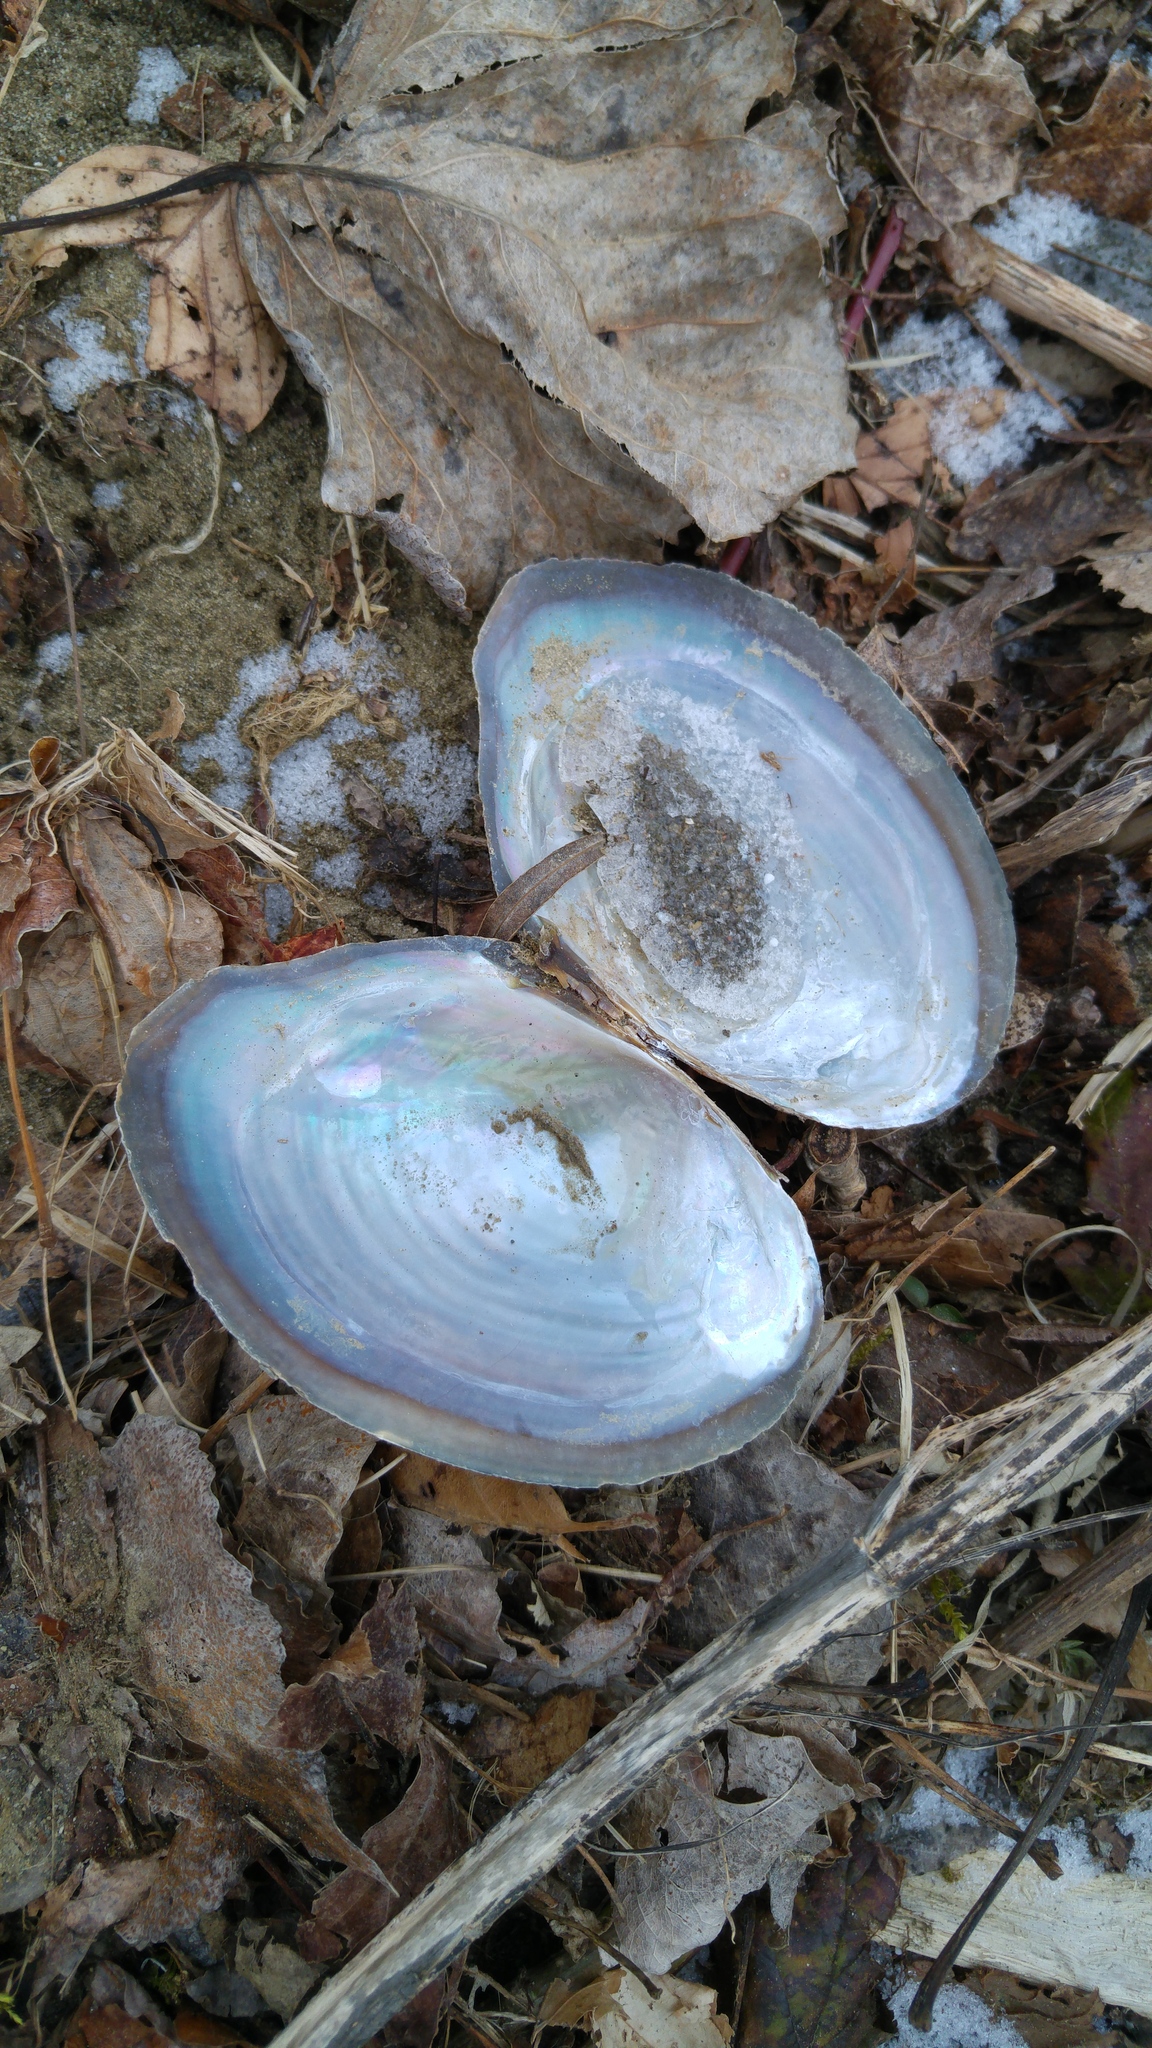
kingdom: Animalia
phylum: Mollusca
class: Bivalvia
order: Unionida
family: Unionidae
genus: Sinanodonta
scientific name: Sinanodonta woodiana
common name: Chinese pond mussel
